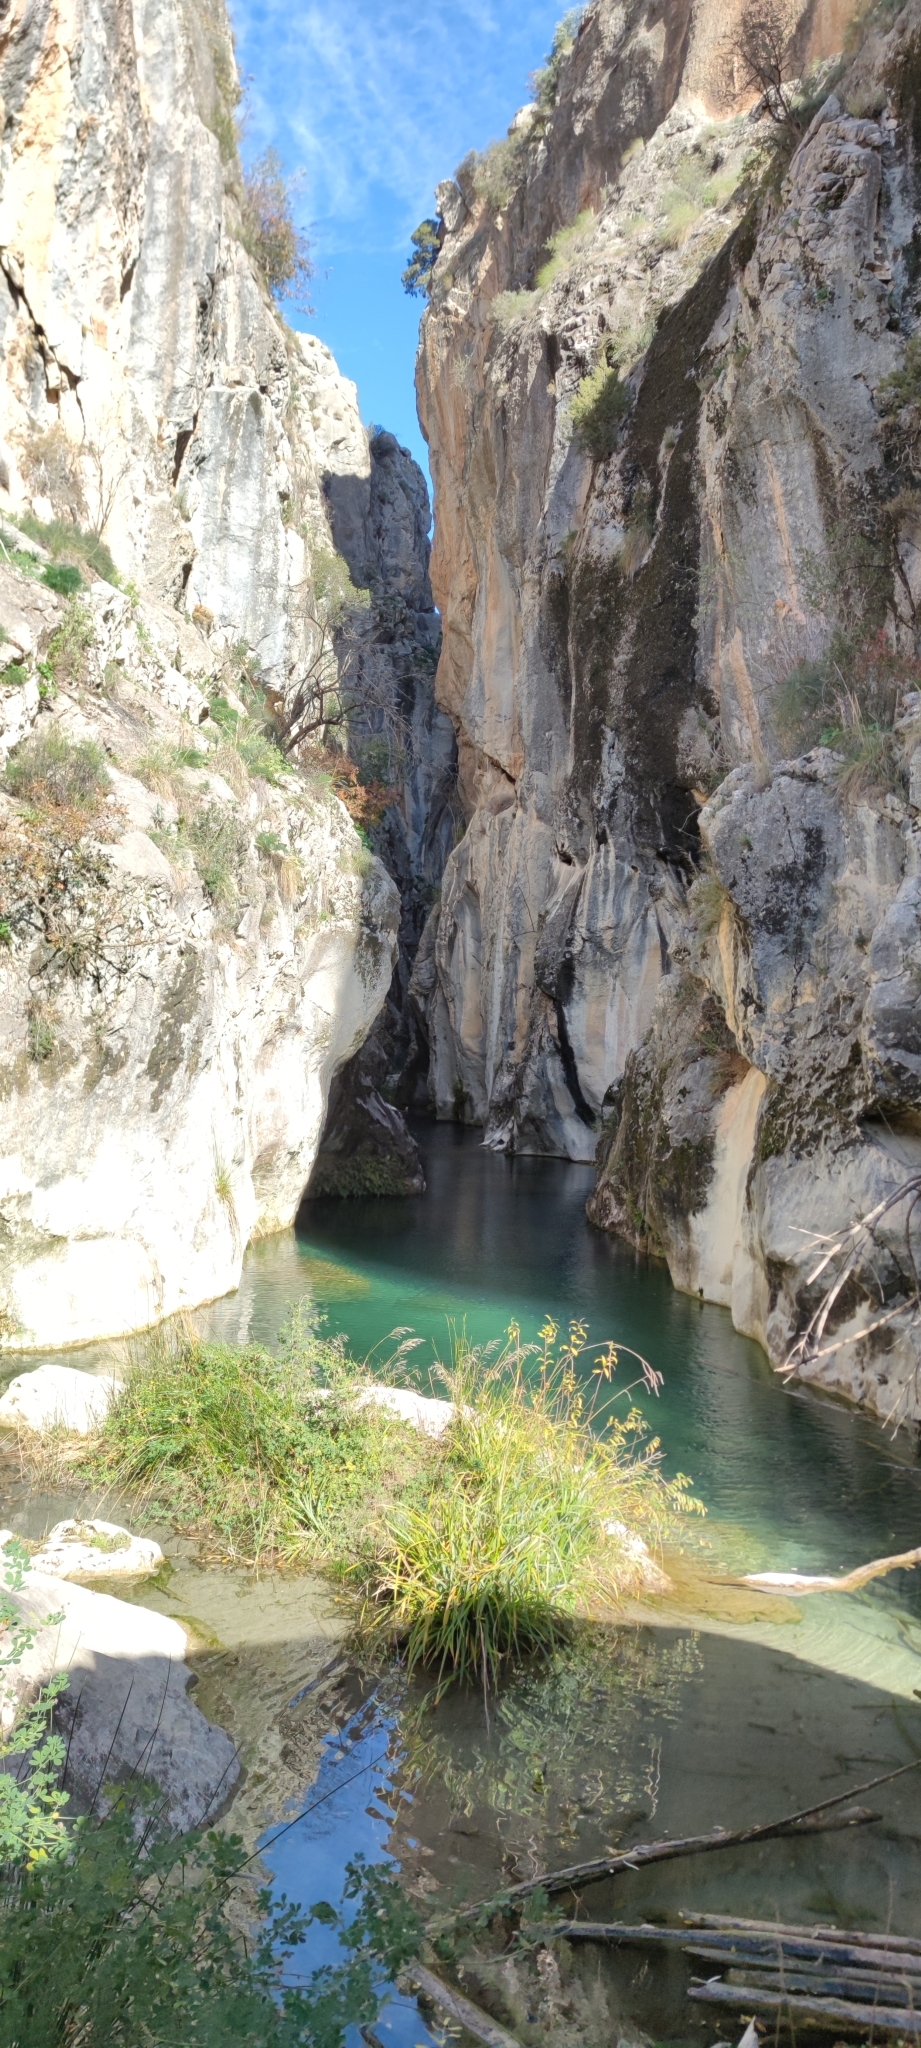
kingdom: Plantae
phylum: Tracheophyta
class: Liliopsida
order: Poales
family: Cyperaceae
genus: Carex
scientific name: Carex pendula
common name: Pendulous sedge
